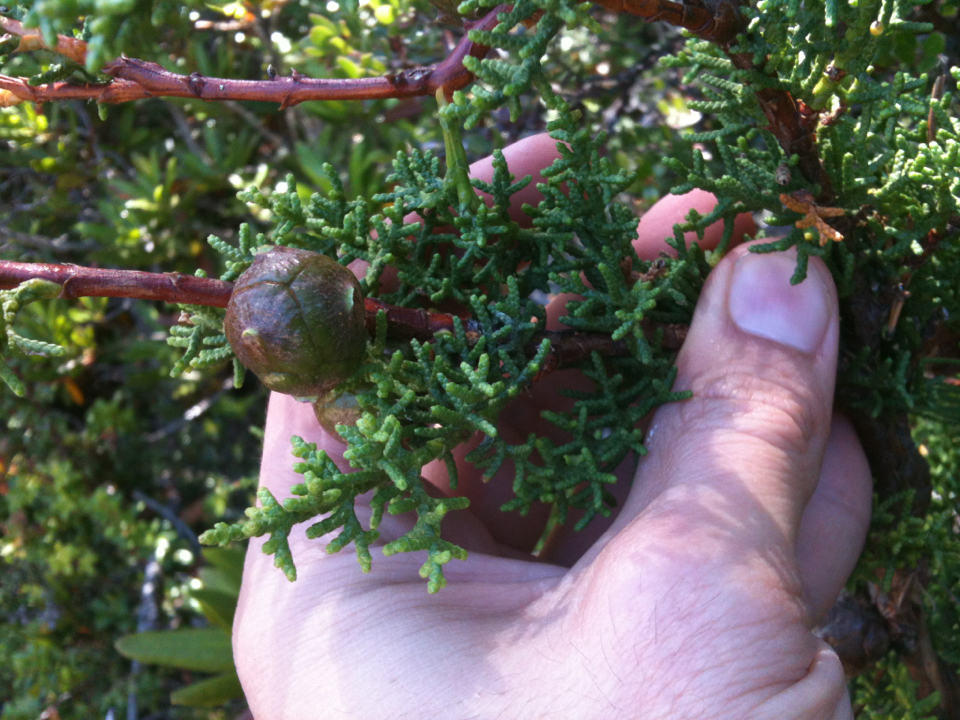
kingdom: Plantae
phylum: Tracheophyta
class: Pinopsida
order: Pinales
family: Cupressaceae
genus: Cupressus
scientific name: Cupressus goveniana
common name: Gowen cypress
